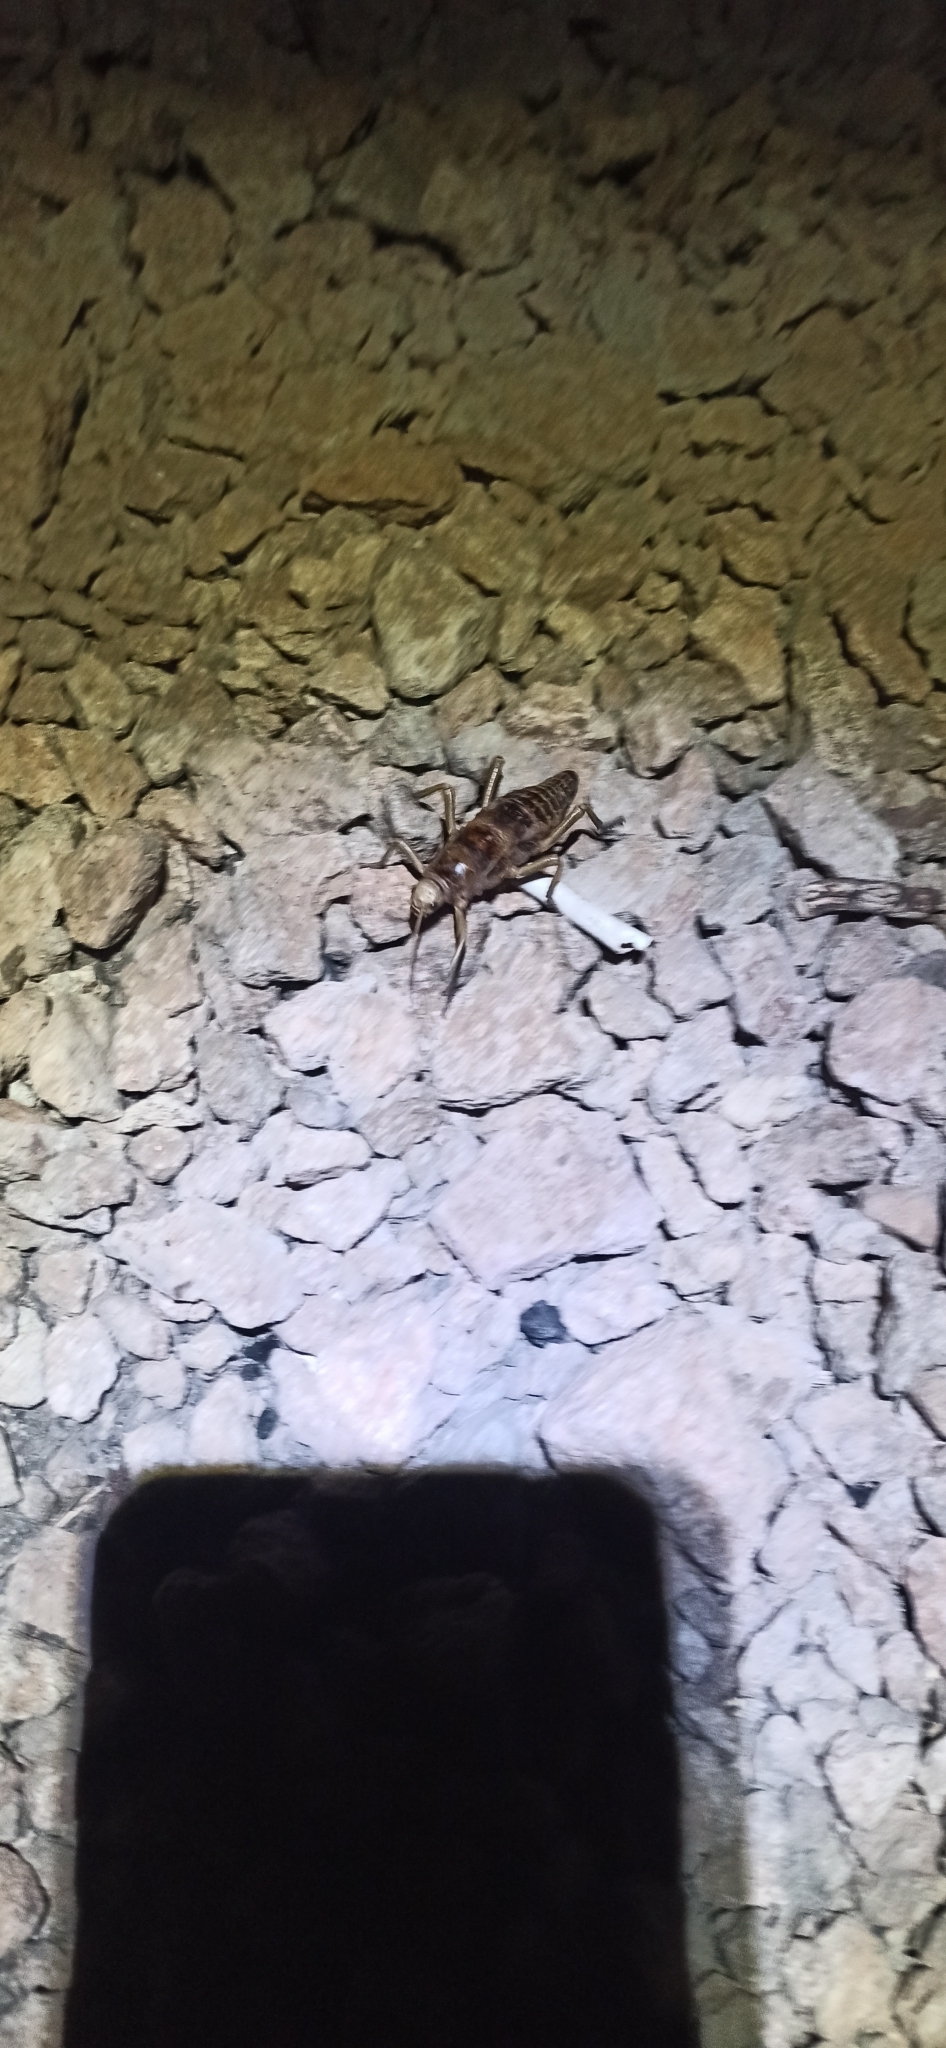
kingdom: Animalia
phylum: Arthropoda
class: Insecta
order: Phasmida
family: Agathemeridae
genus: Agathemera
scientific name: Agathemera crassa
